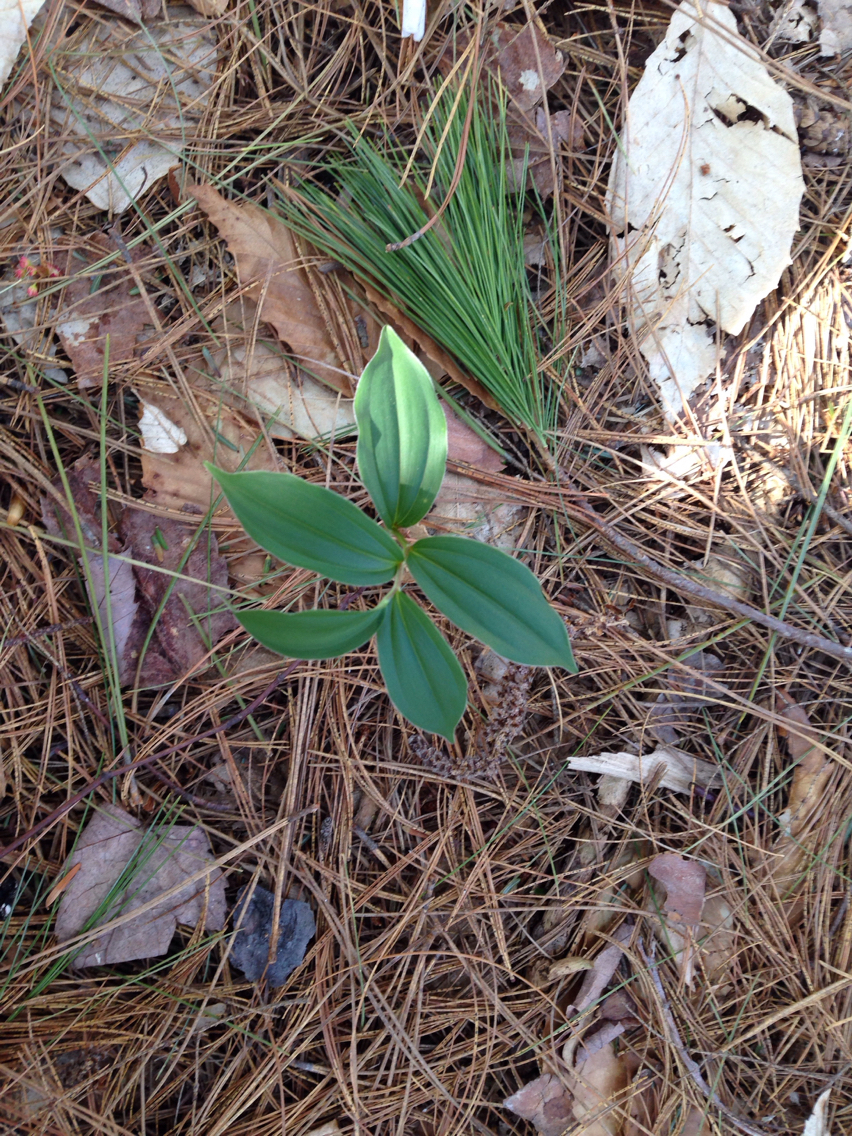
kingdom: Plantae
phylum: Tracheophyta
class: Liliopsida
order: Asparagales
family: Asparagaceae
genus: Maianthemum
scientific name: Maianthemum racemosum
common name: False spikenard
